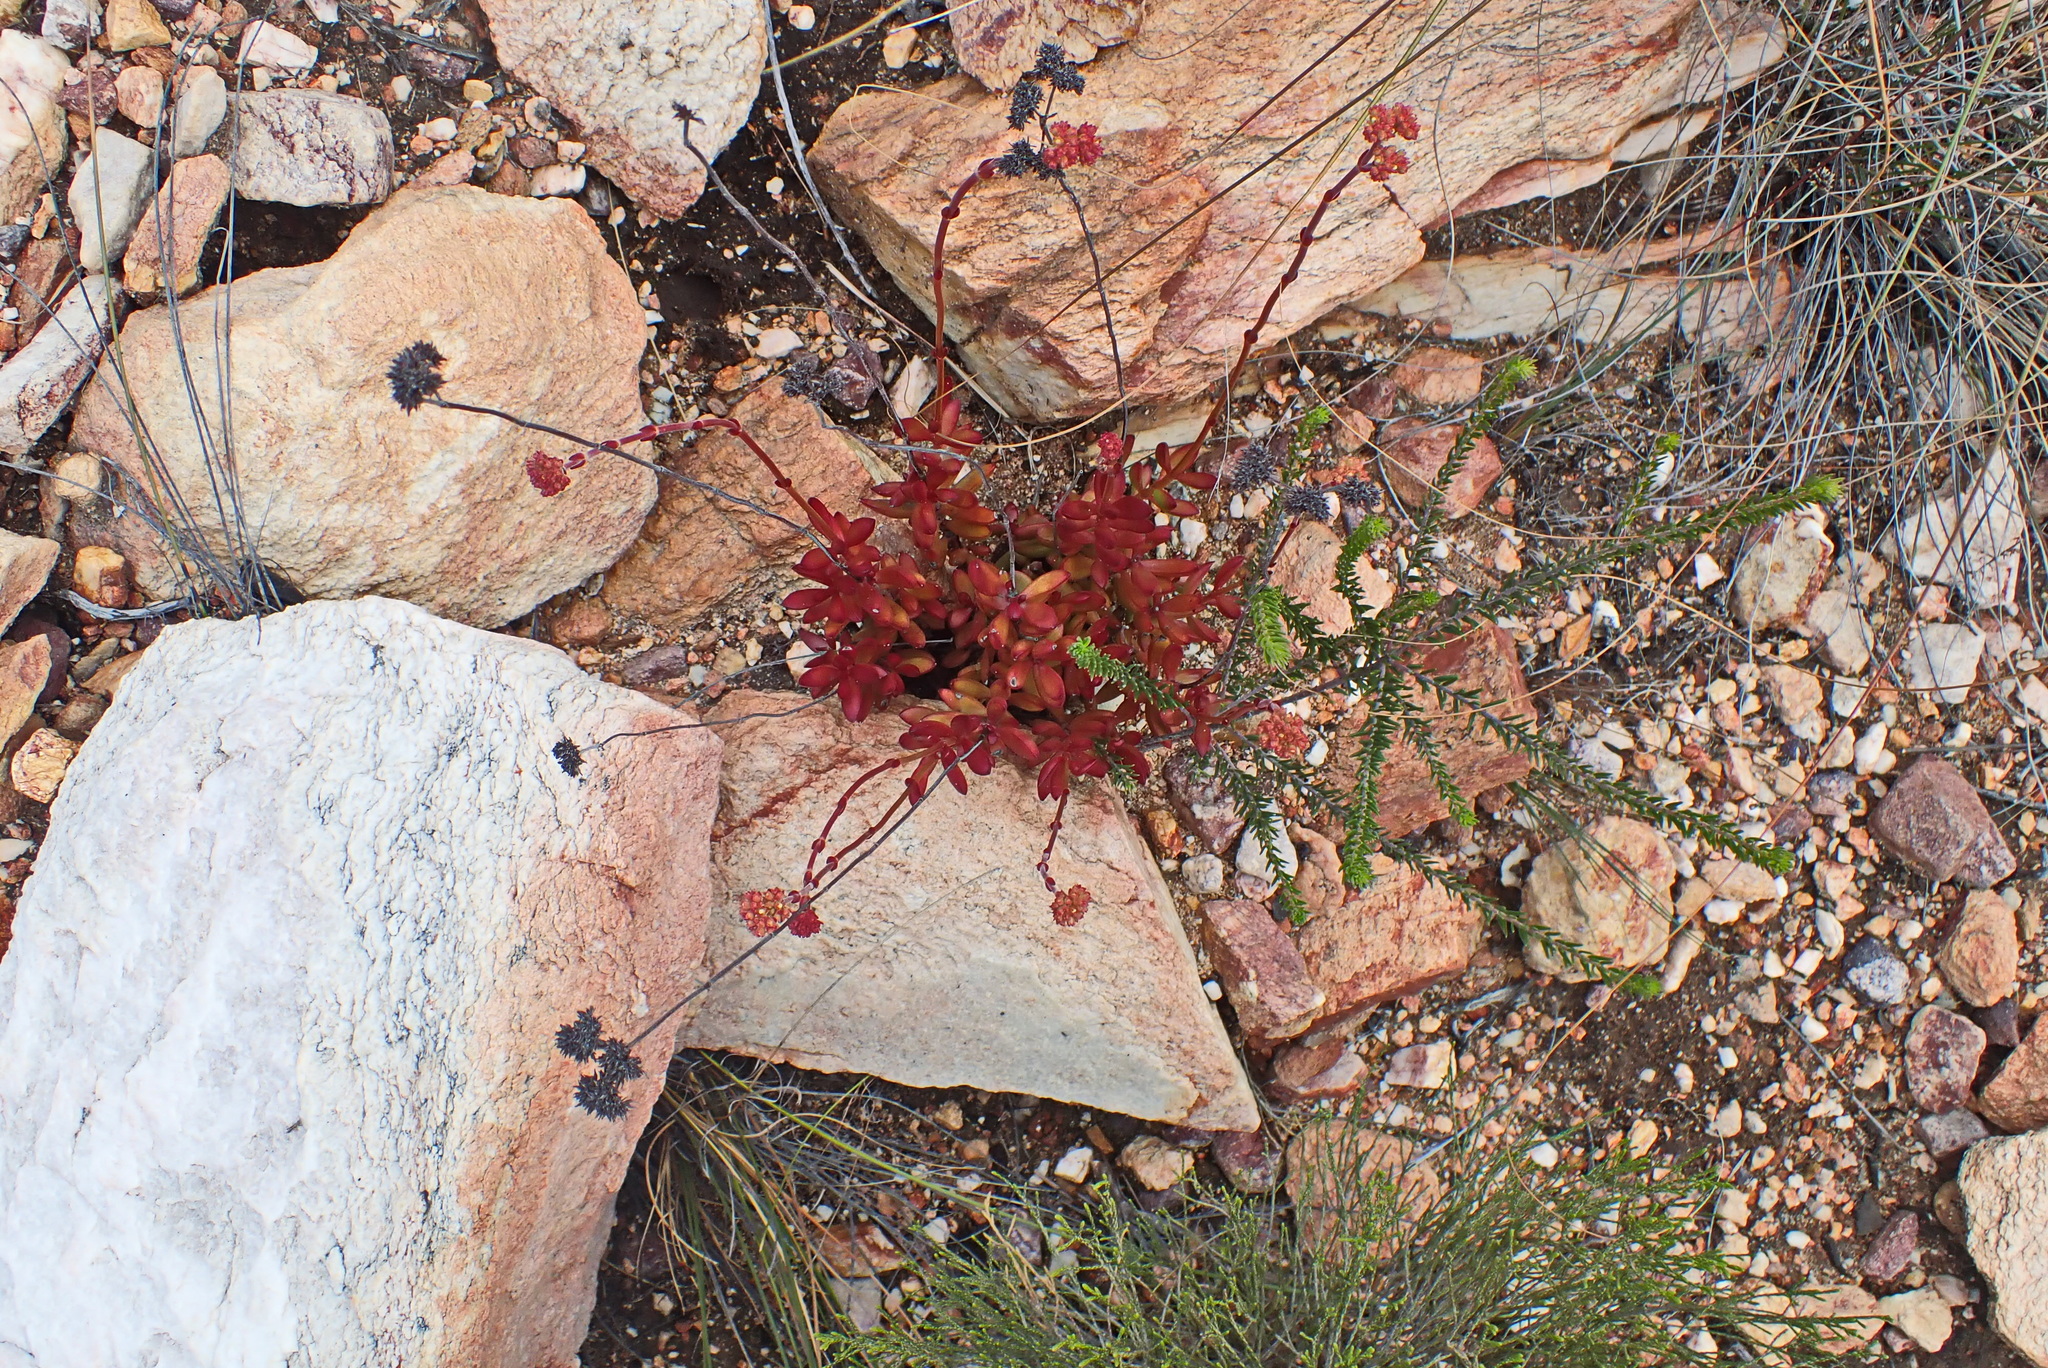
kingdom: Plantae
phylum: Tracheophyta
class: Magnoliopsida
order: Saxifragales
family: Crassulaceae
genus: Crassula
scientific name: Crassula atropurpurea
